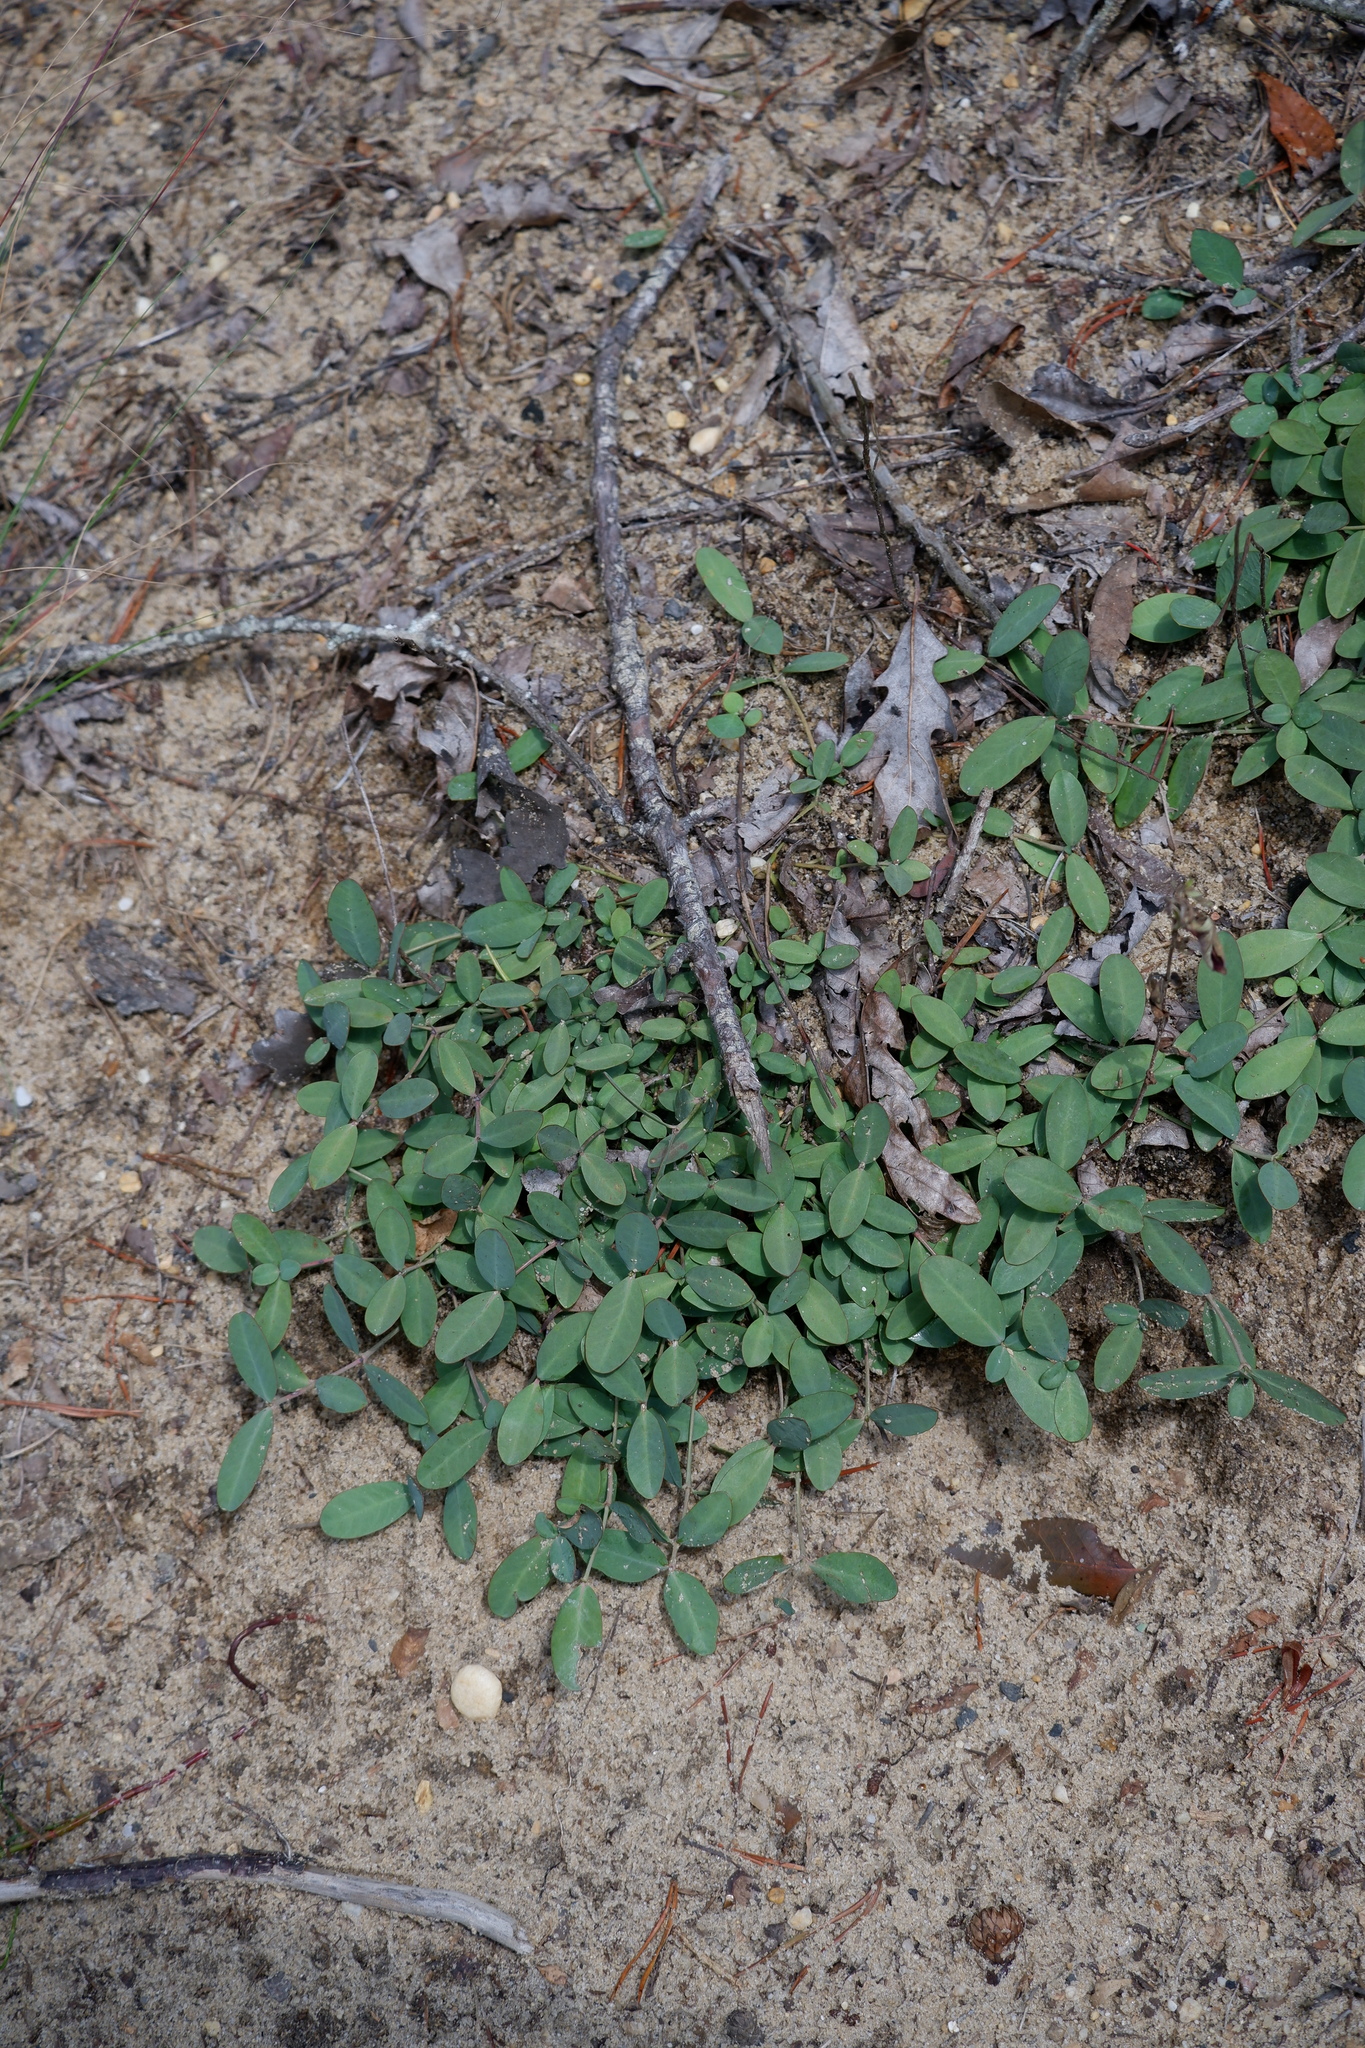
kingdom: Plantae
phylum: Tracheophyta
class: Magnoliopsida
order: Malpighiales
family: Euphorbiaceae
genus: Euphorbia
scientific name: Euphorbia ipecacuanhae
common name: Carolina ipecac
